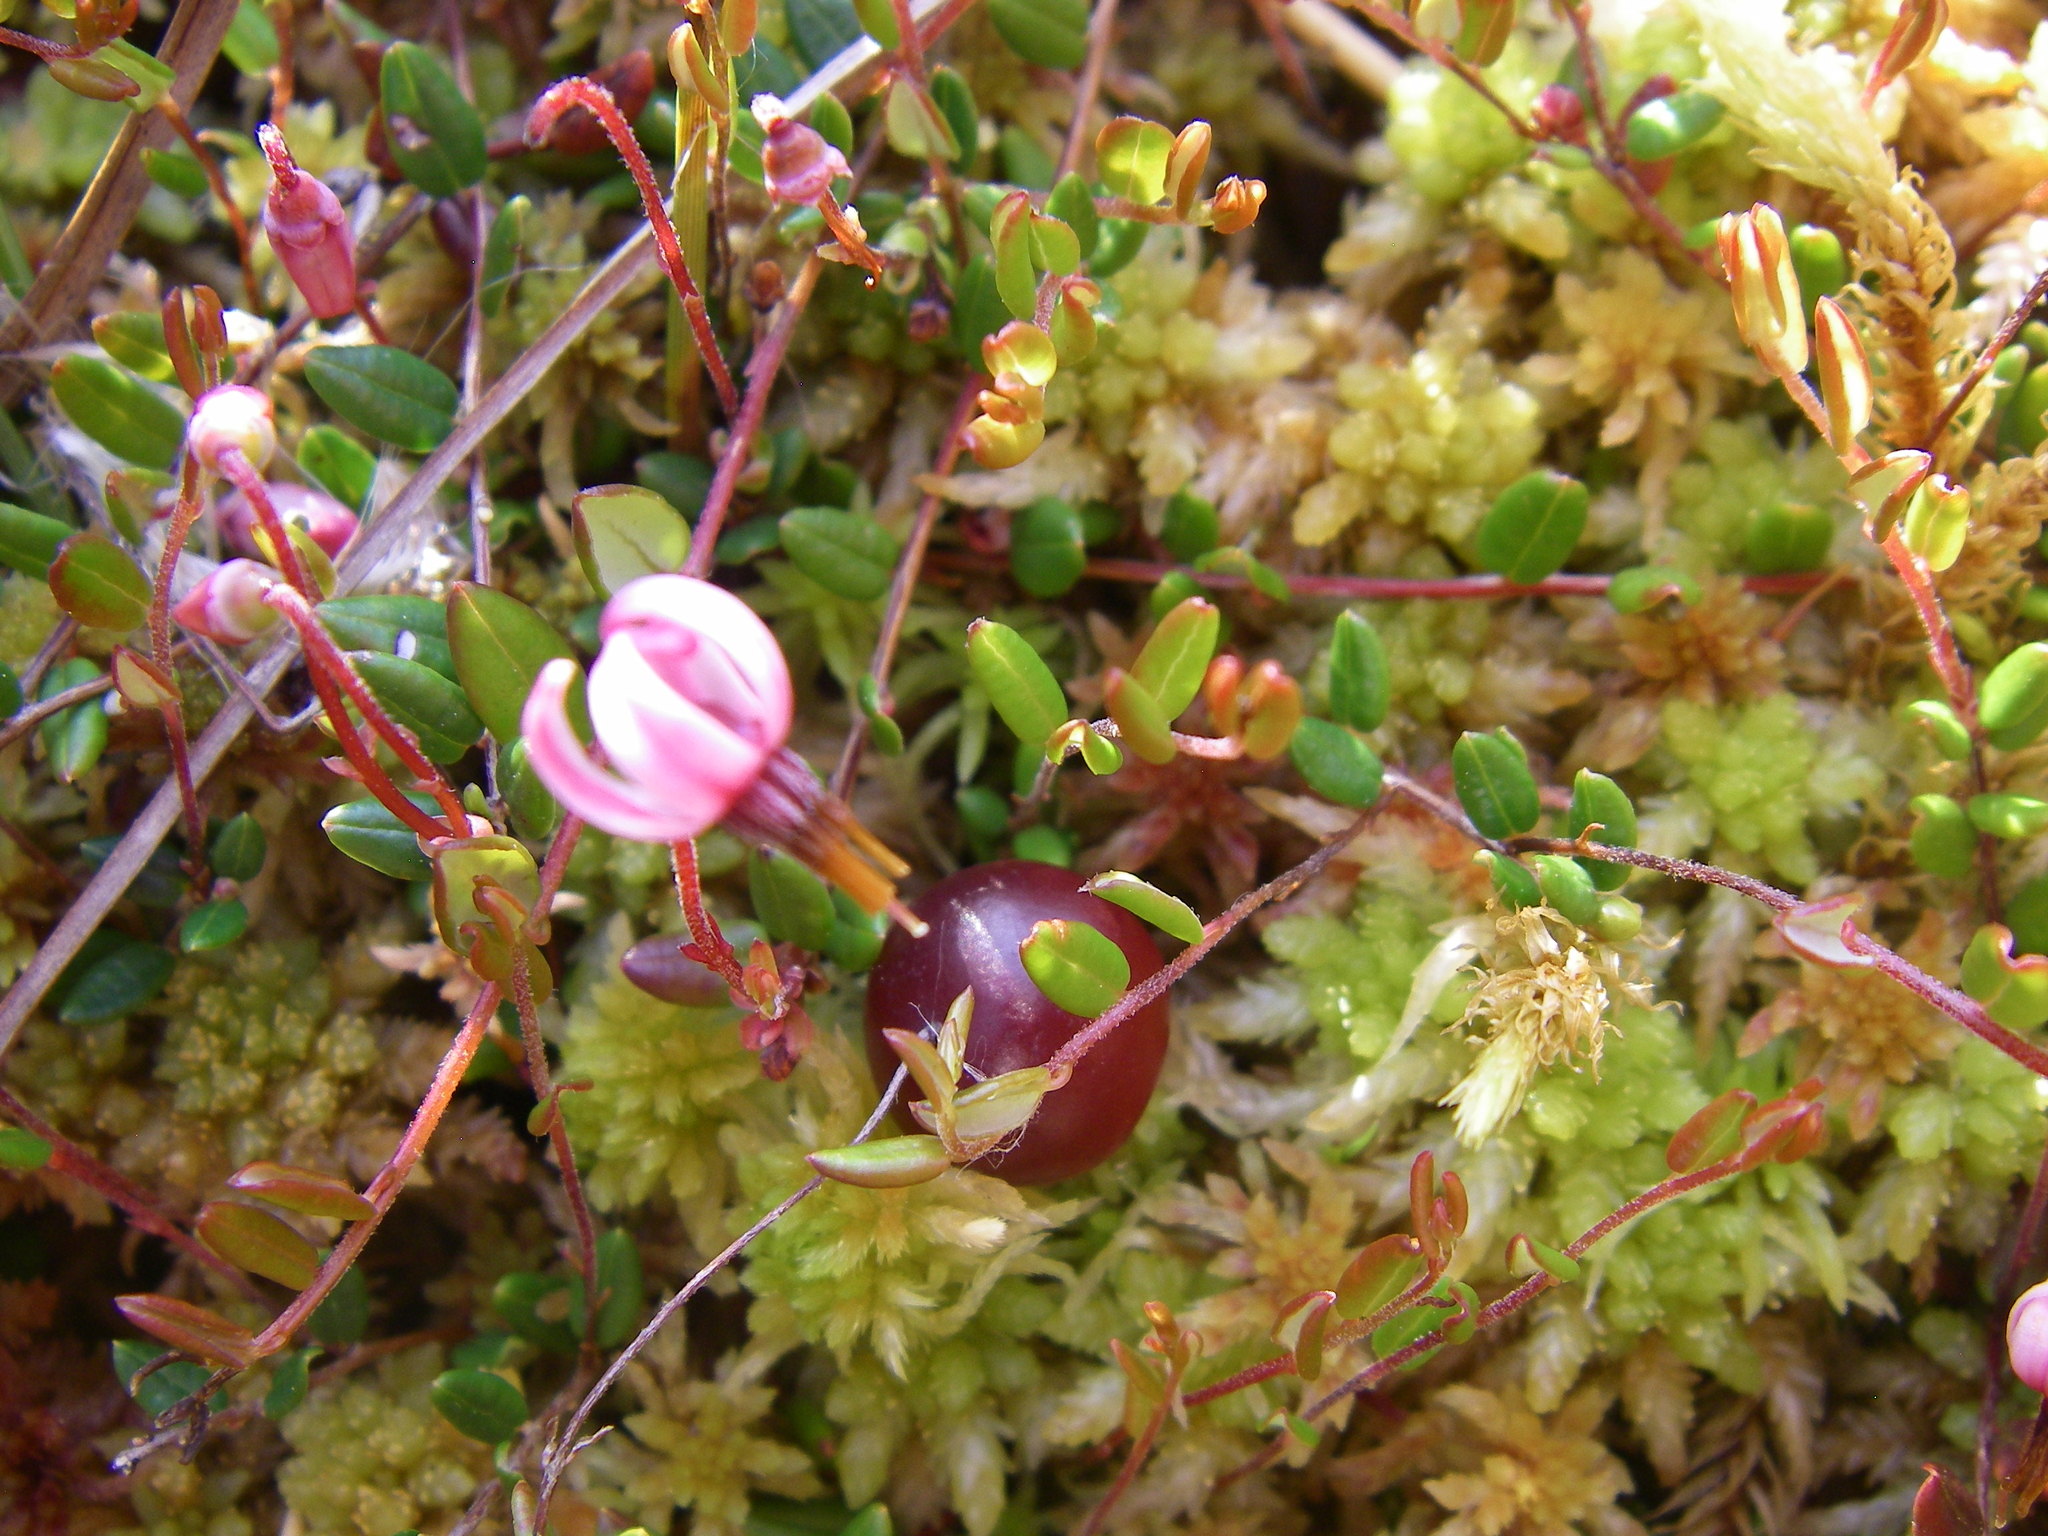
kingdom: Plantae
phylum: Tracheophyta
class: Magnoliopsida
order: Ericales
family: Ericaceae
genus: Vaccinium
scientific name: Vaccinium oxycoccos
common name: Cranberry
